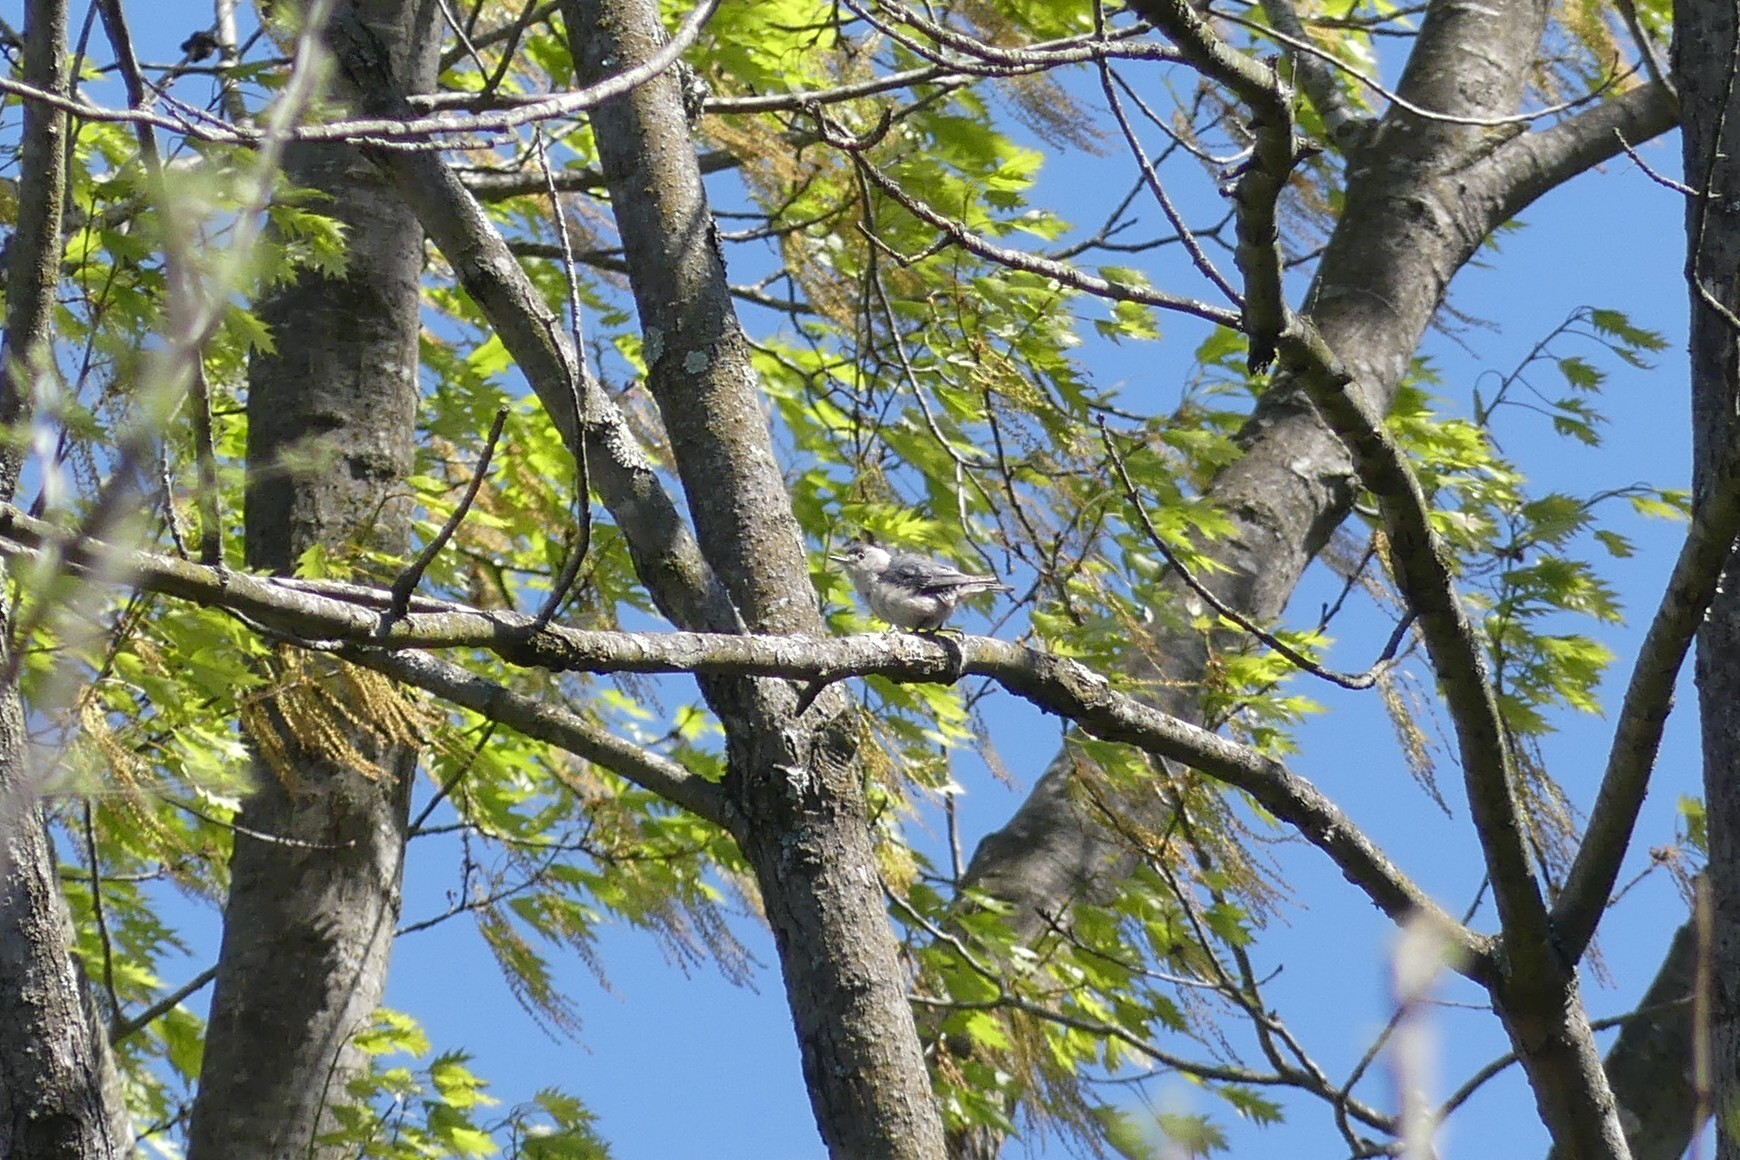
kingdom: Animalia
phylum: Chordata
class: Aves
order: Passeriformes
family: Sittidae
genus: Sitta
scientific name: Sitta carolinensis
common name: White-breasted nuthatch
